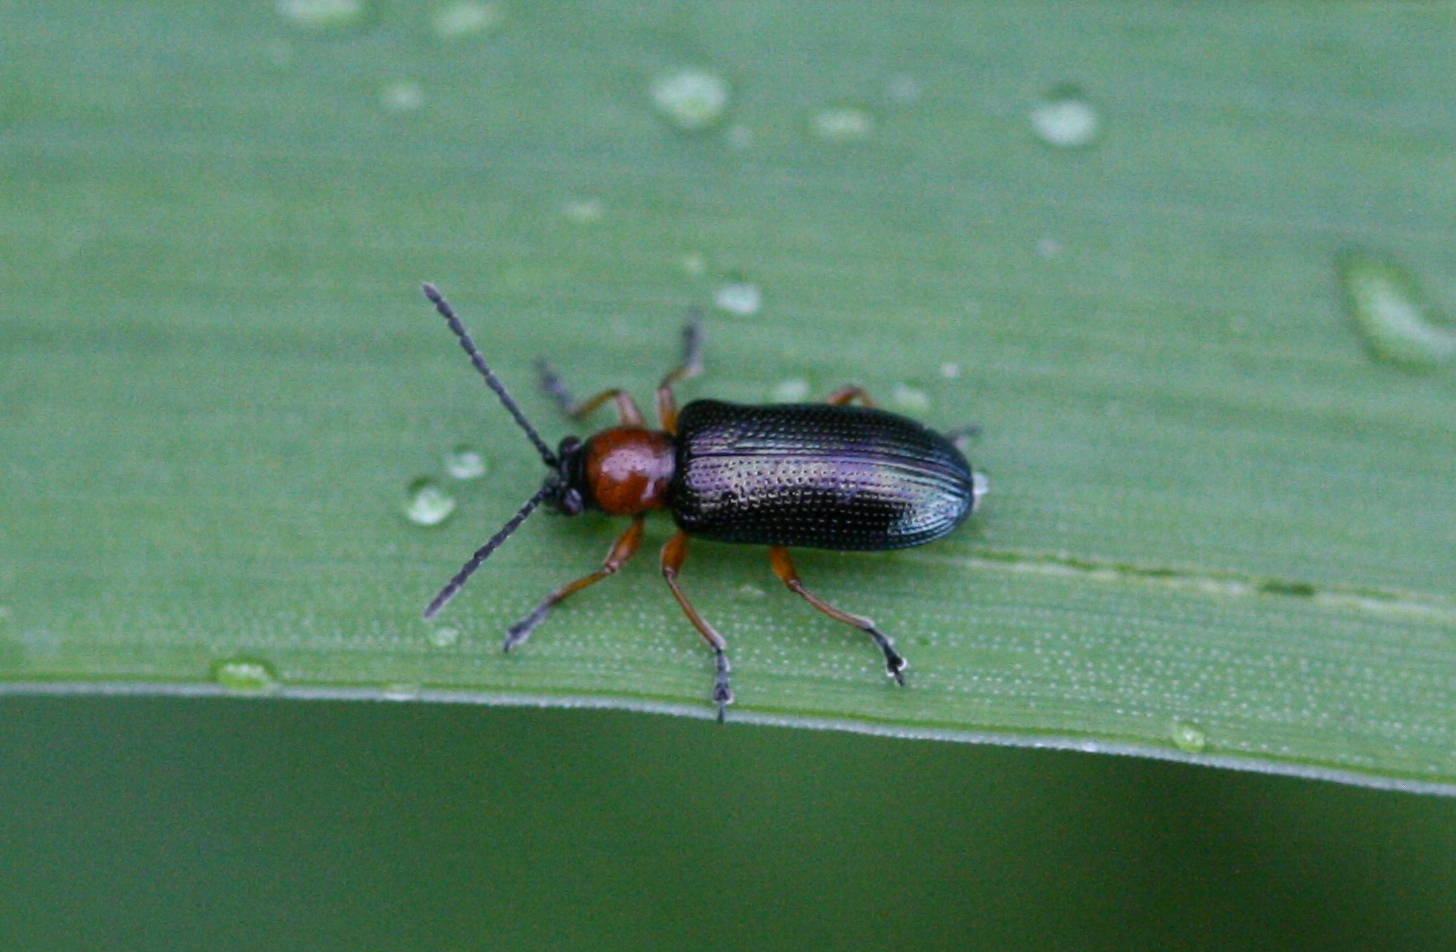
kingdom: Animalia
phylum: Arthropoda
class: Insecta
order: Coleoptera
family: Chrysomelidae
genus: Oulema
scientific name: Oulema
